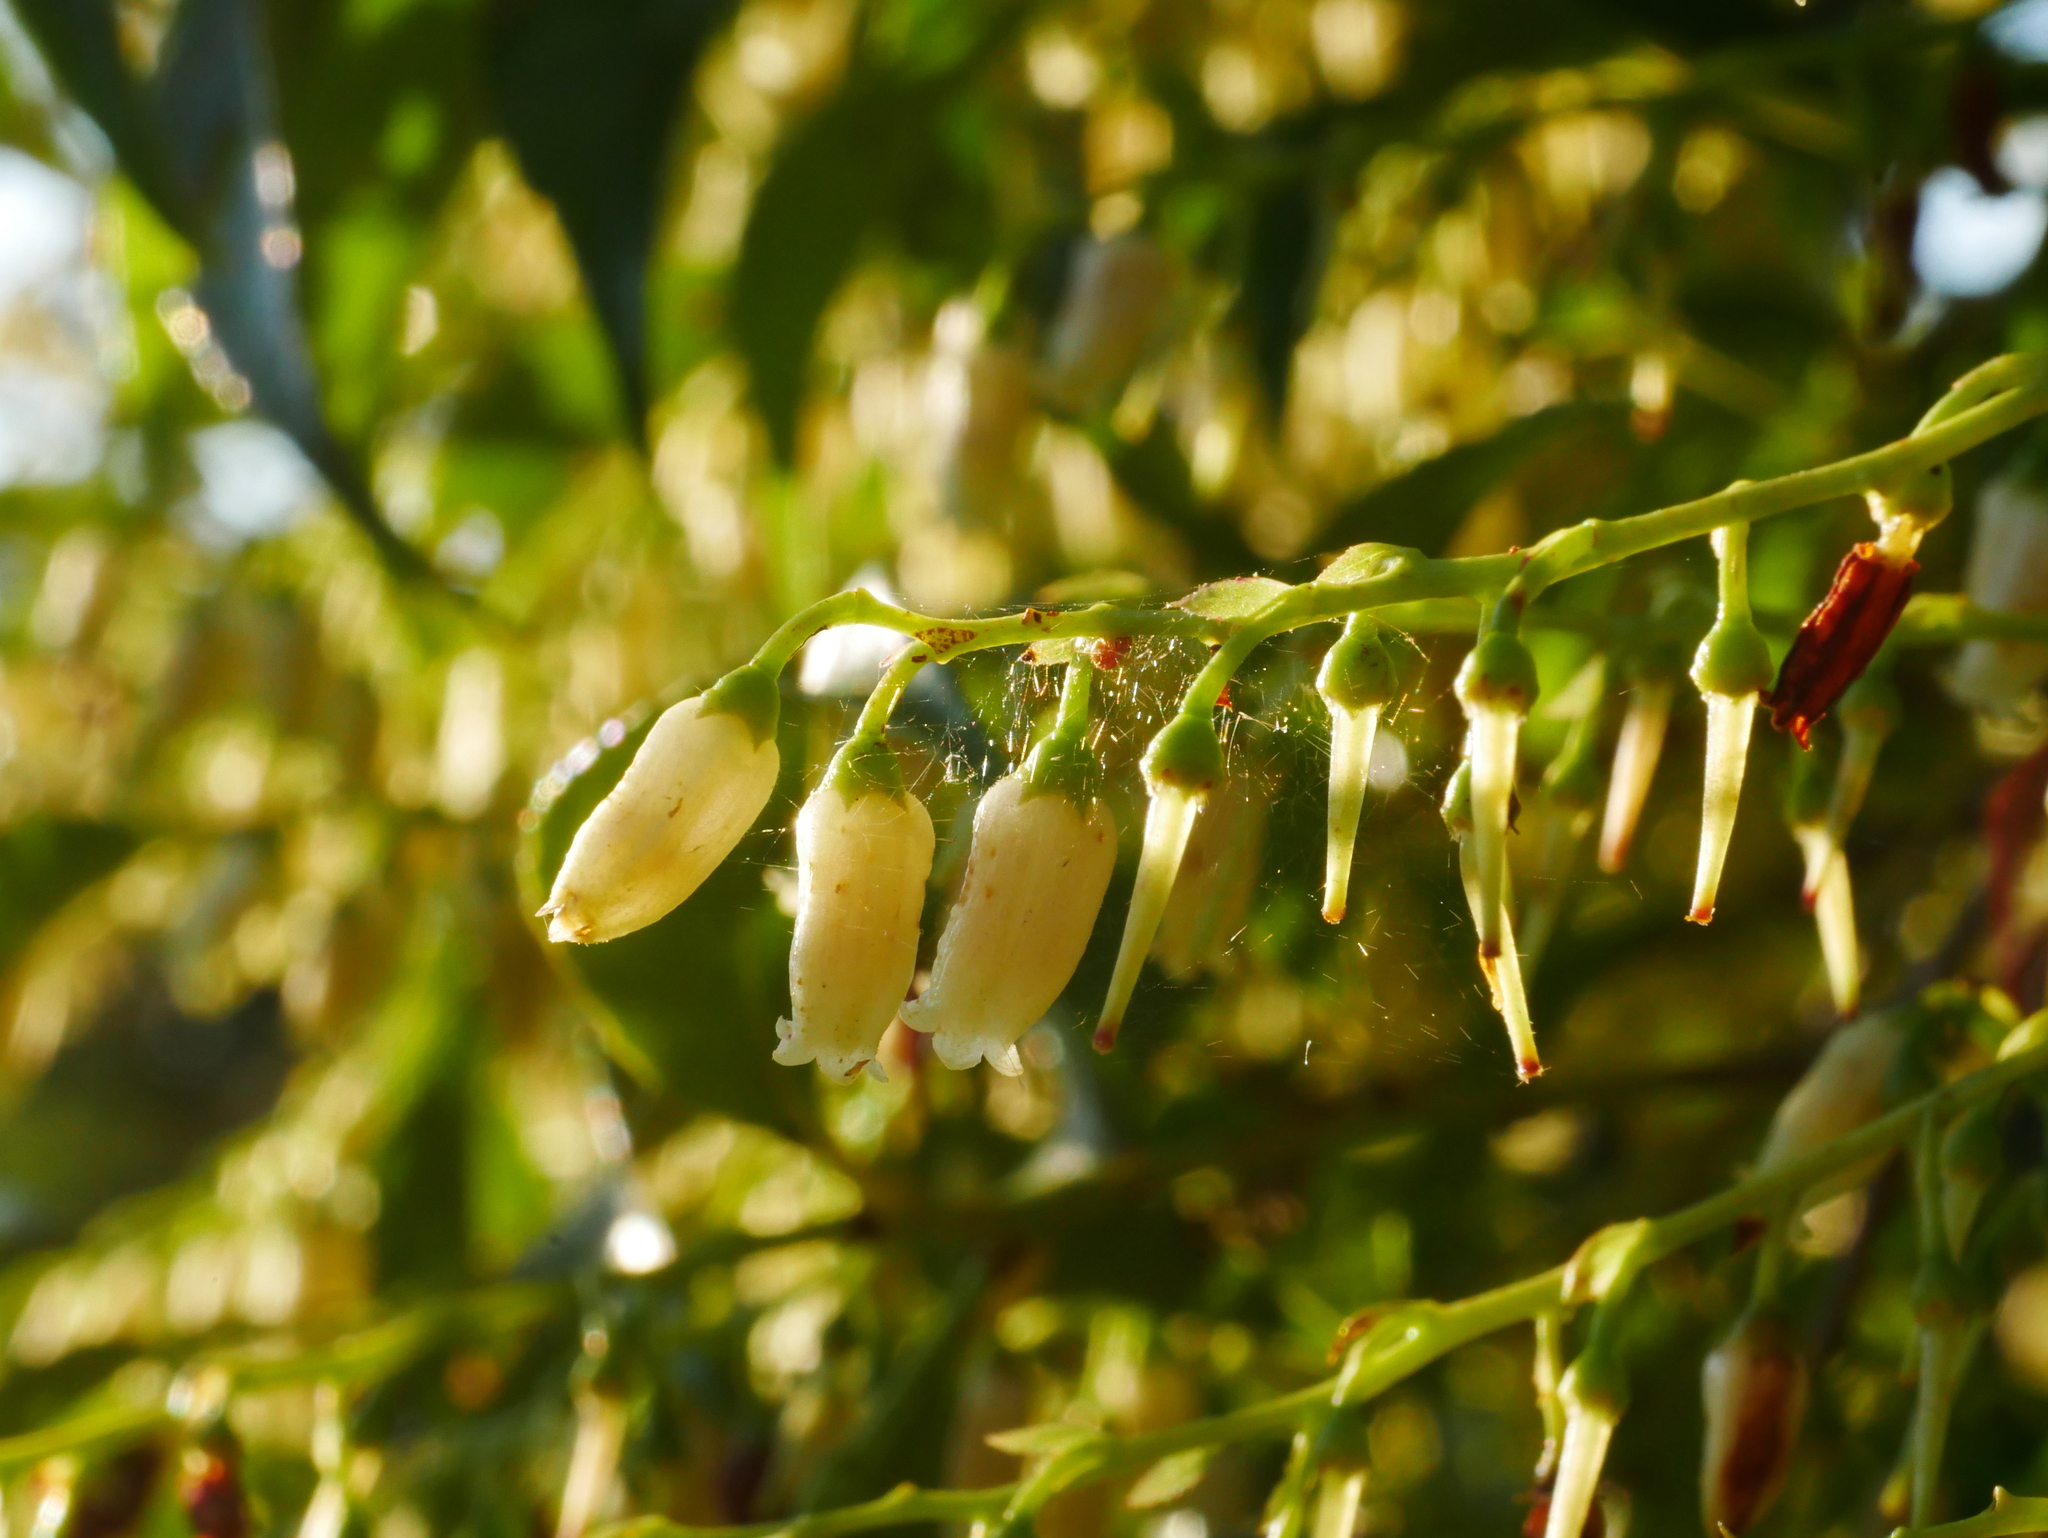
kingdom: Plantae
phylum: Tracheophyta
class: Magnoliopsida
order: Ericales
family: Ericaceae
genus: Vaccinium
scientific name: Vaccinium bracteatum
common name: Sea bilberry
